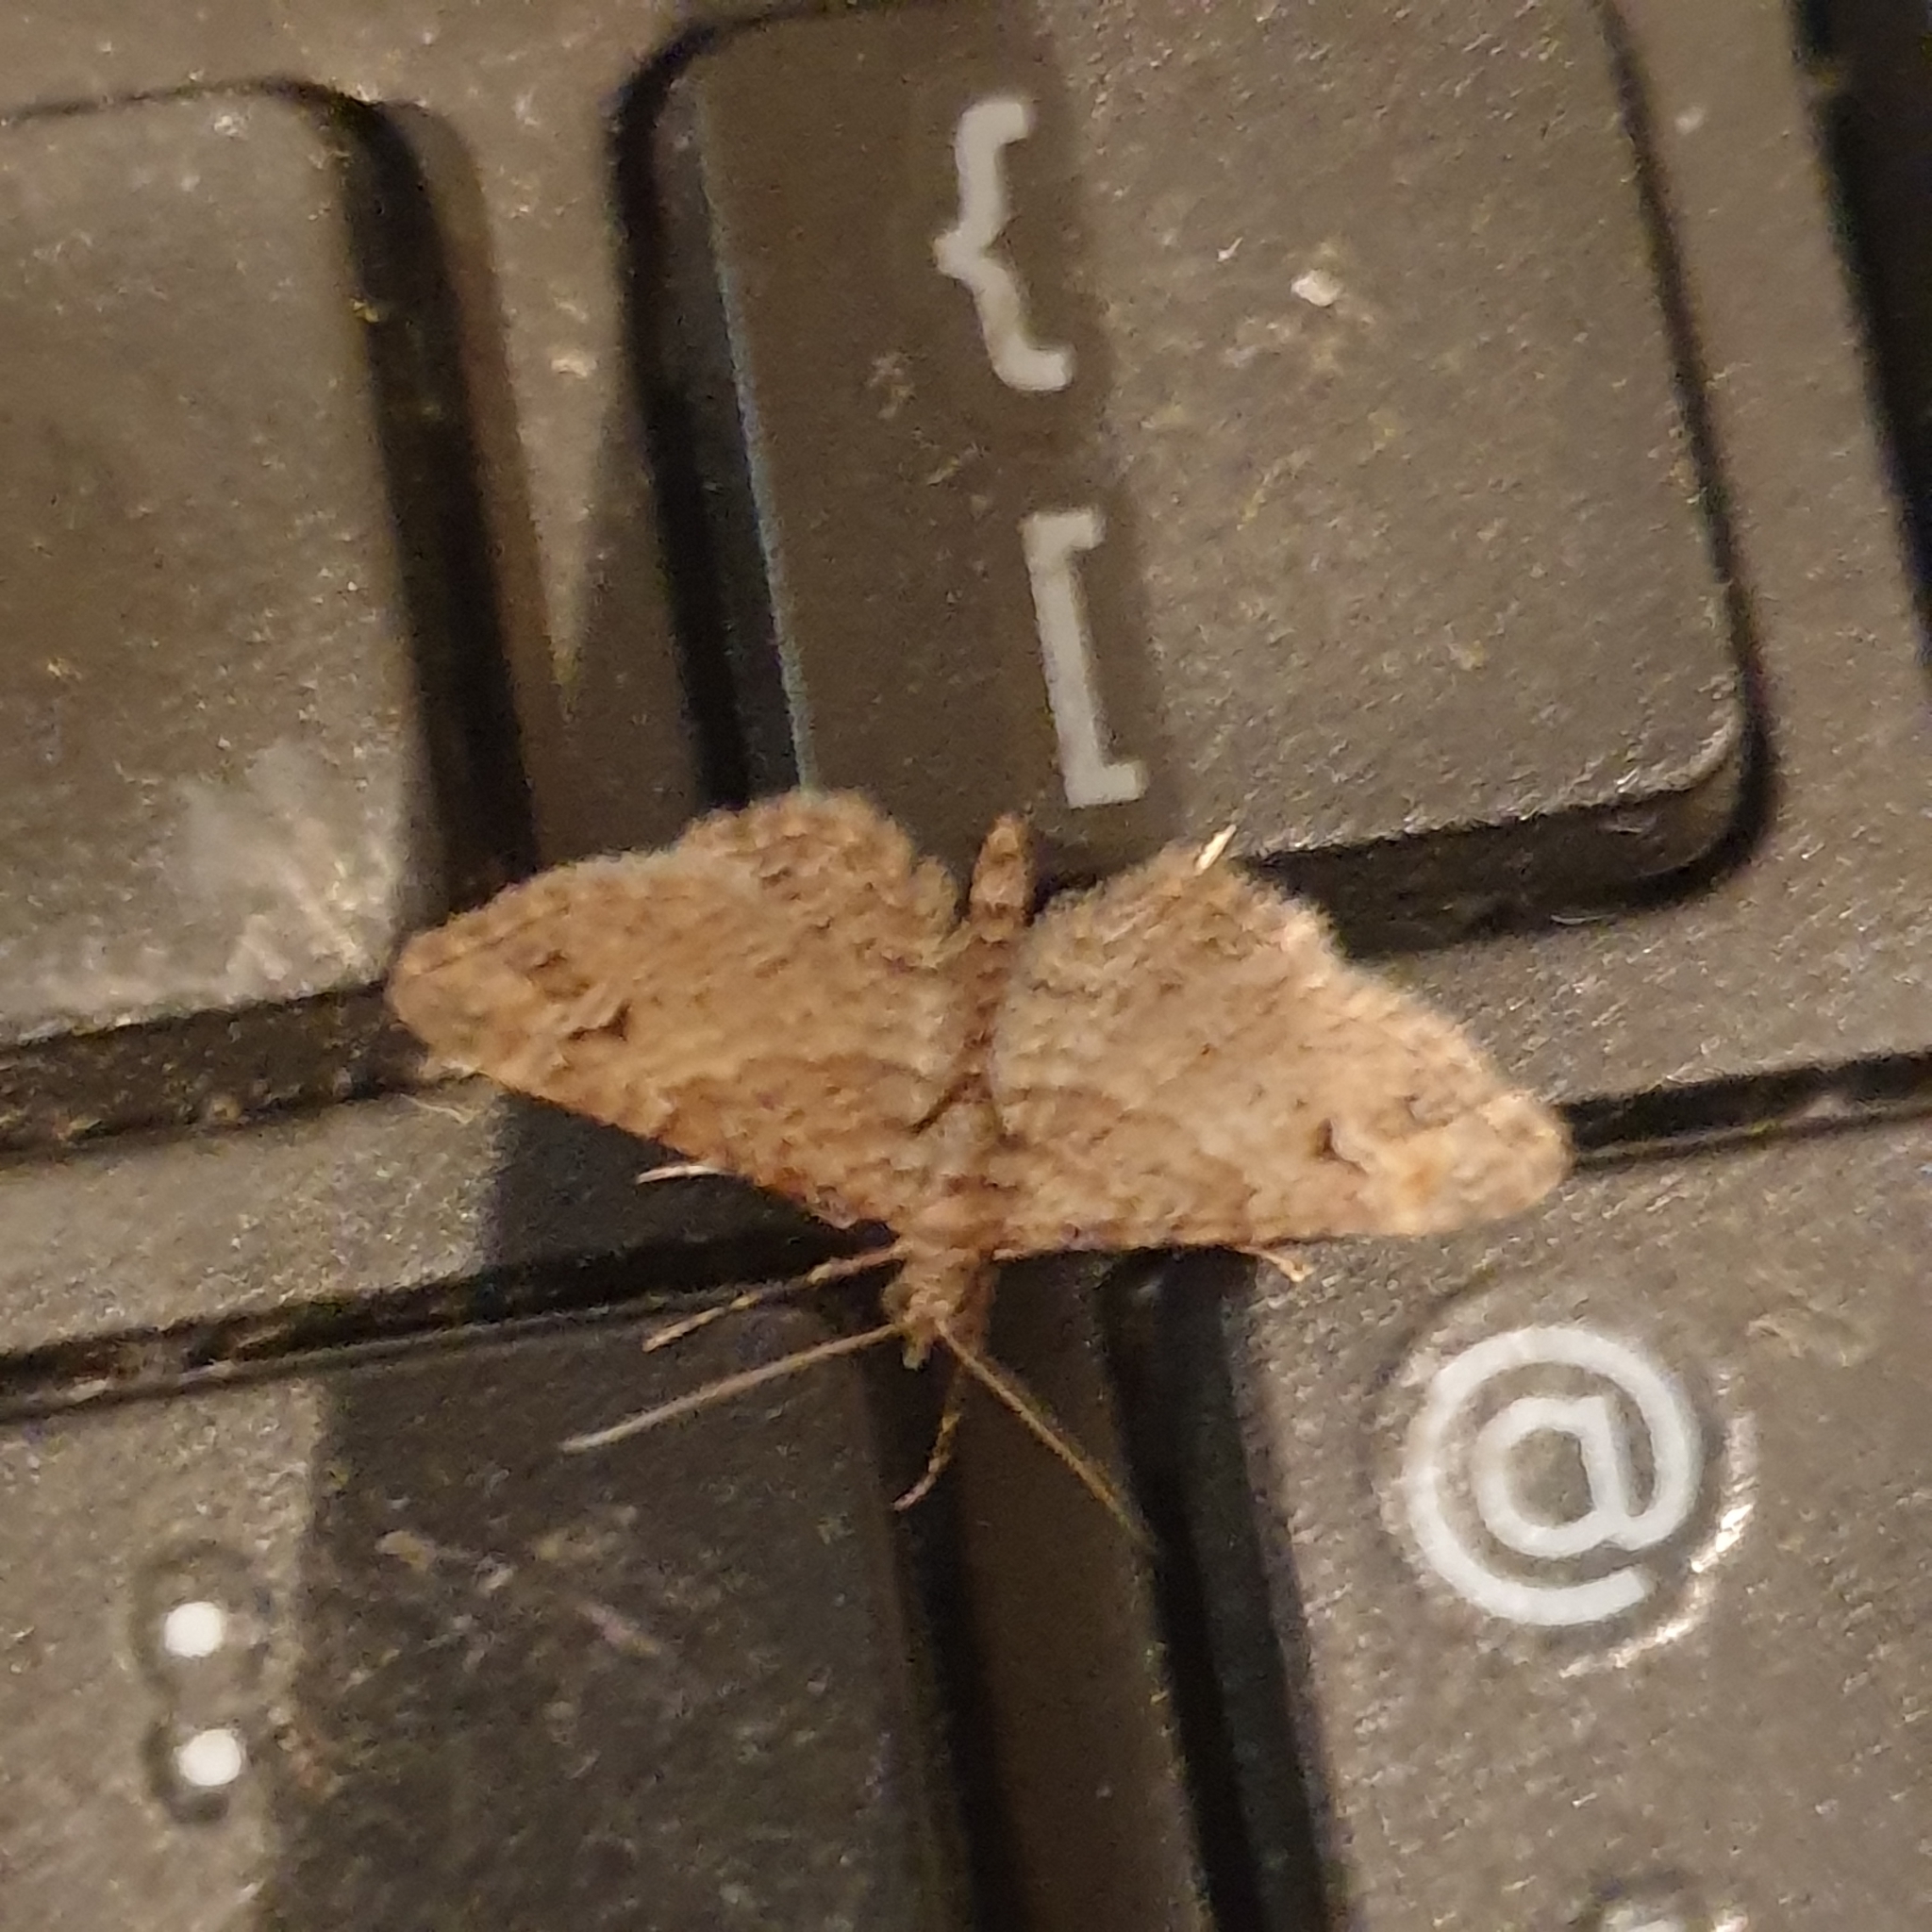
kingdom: Animalia
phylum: Arthropoda
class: Insecta
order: Lepidoptera
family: Geometridae
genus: Gymnoscelis
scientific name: Gymnoscelis rufifasciata
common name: Double-striped pug
